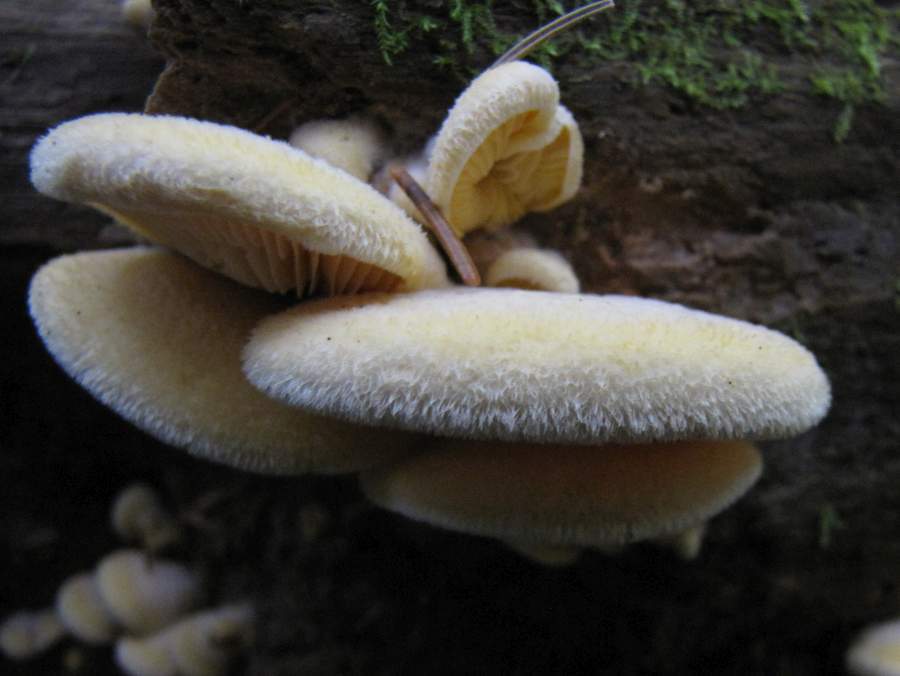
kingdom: Fungi
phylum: Basidiomycota
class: Agaricomycetes
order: Agaricales
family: Phyllotopsidaceae
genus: Phyllotopsis
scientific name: Phyllotopsis nidulans
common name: Orange mock oyster
